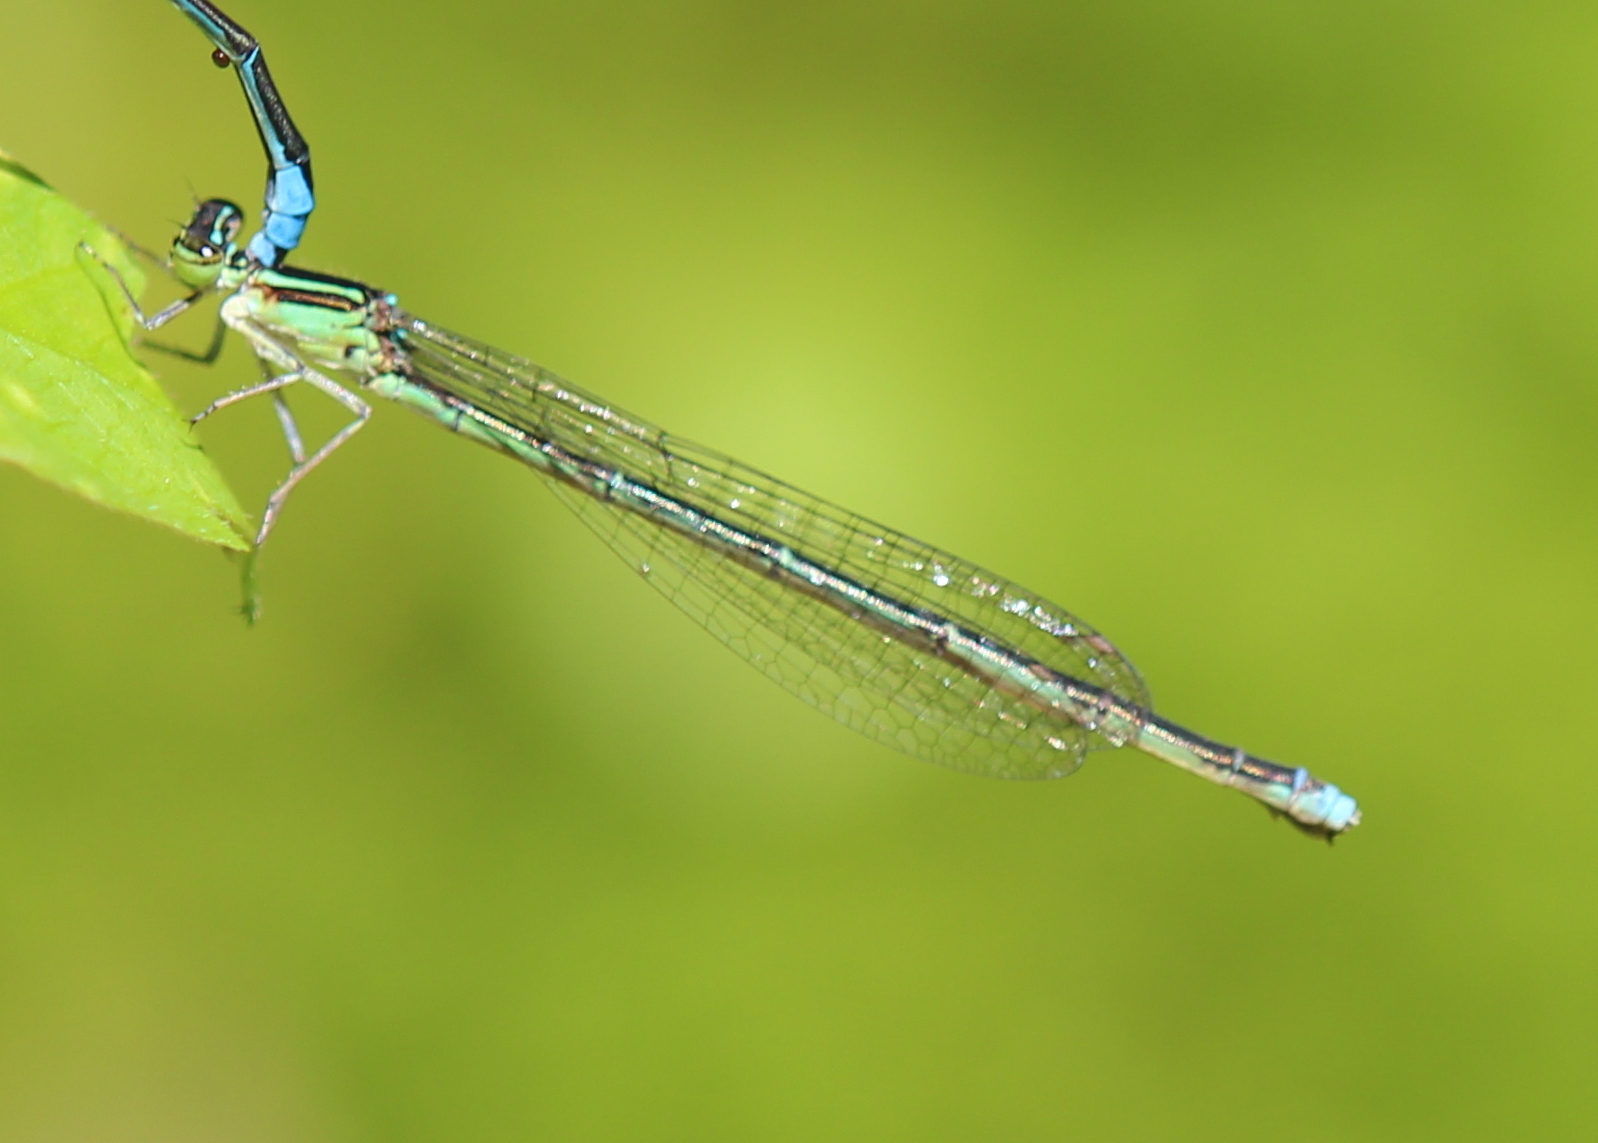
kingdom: Animalia
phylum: Arthropoda
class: Insecta
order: Odonata
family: Coenagrionidae
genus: Enallagma
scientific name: Enallagma exsulans
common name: Stream bluet
